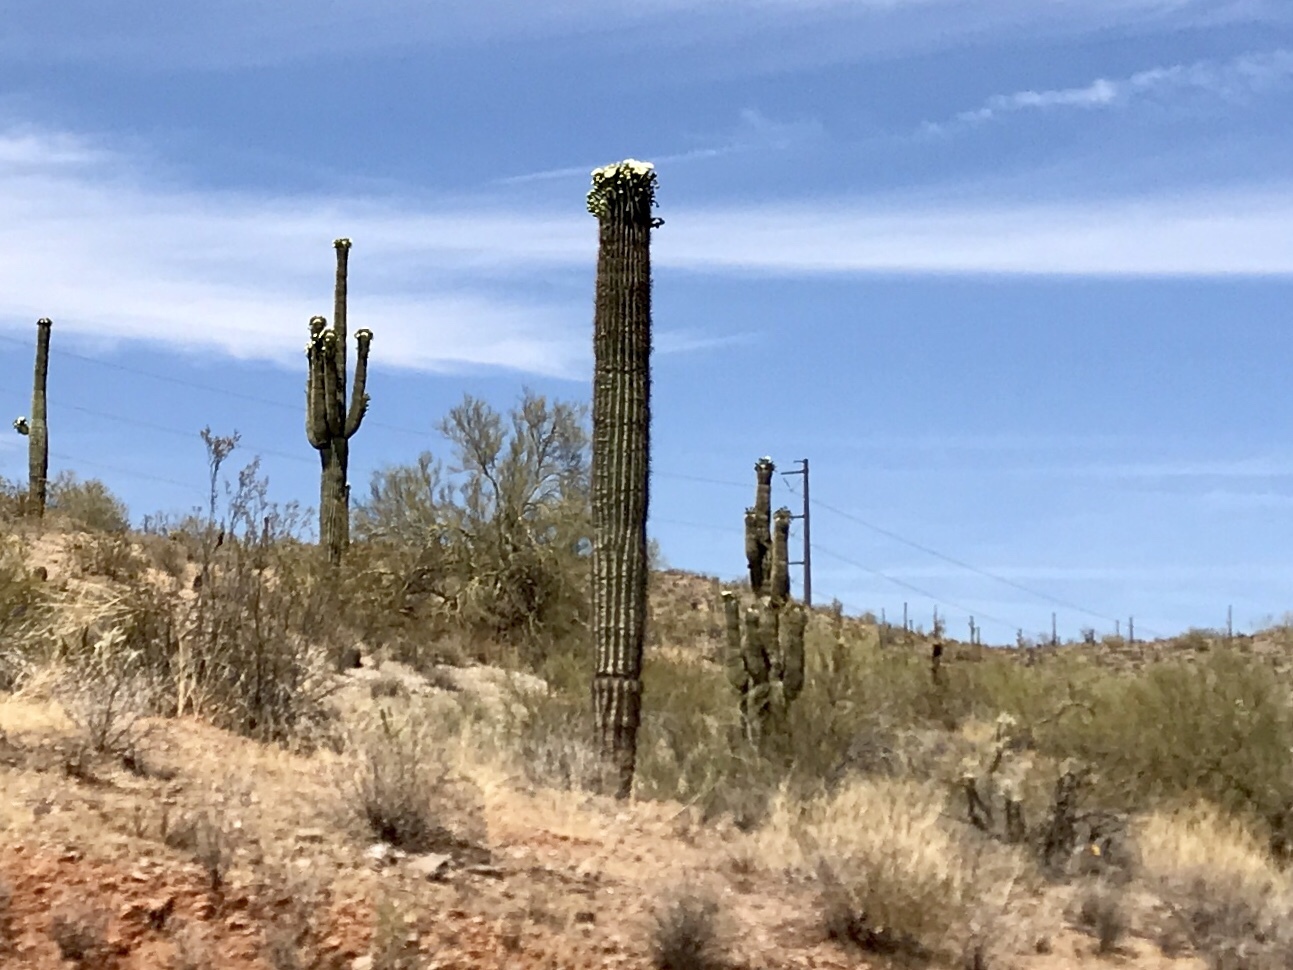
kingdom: Plantae
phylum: Tracheophyta
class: Magnoliopsida
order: Caryophyllales
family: Cactaceae
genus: Carnegiea
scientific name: Carnegiea gigantea
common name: Saguaro
